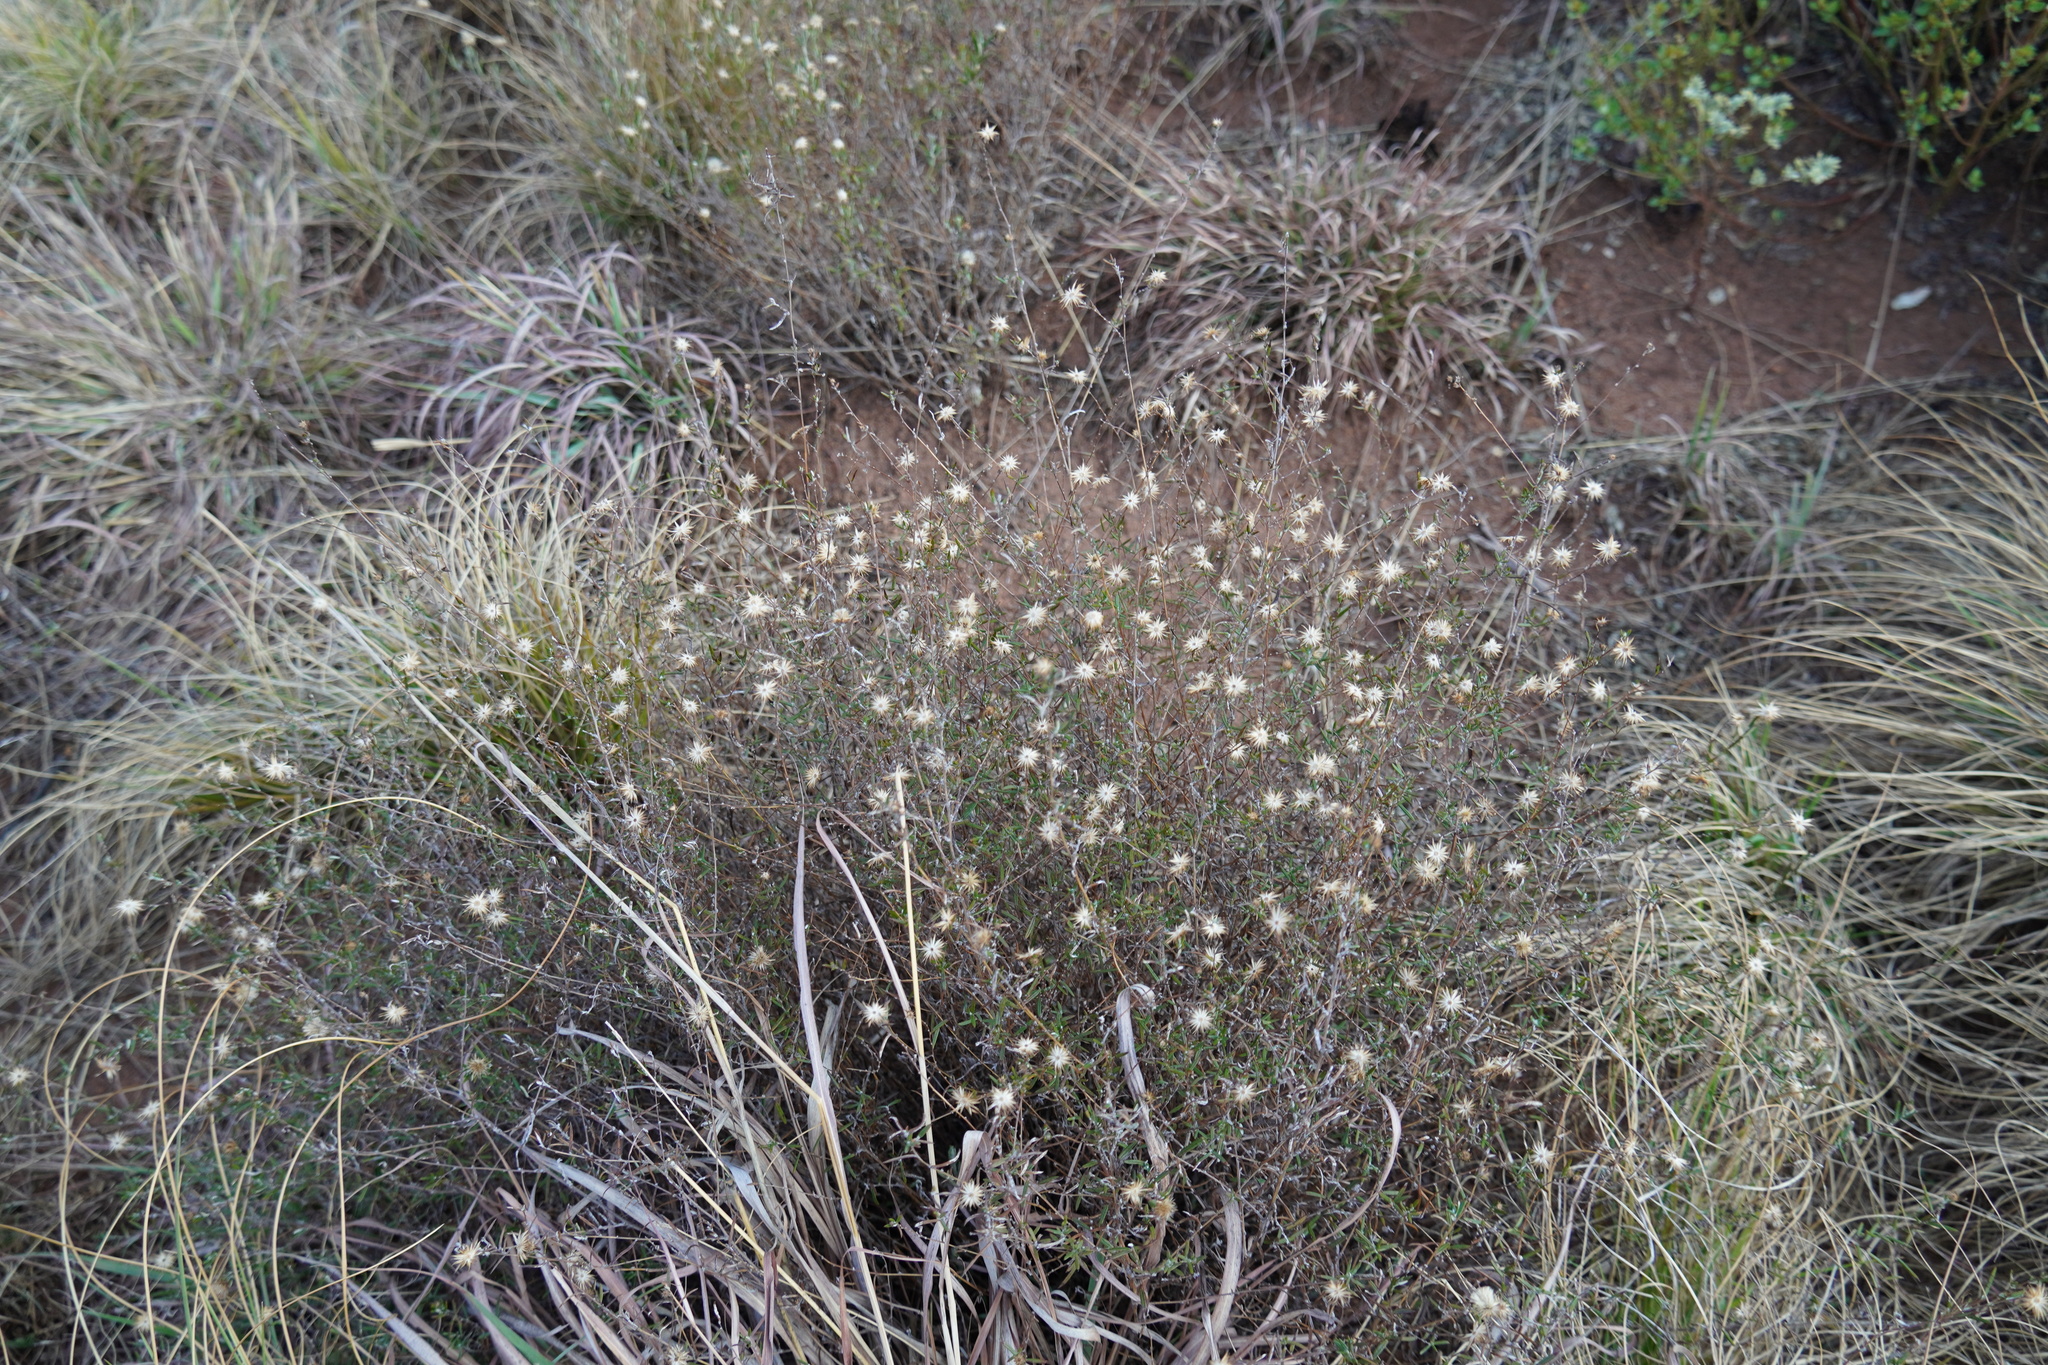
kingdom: Plantae
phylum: Tracheophyta
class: Magnoliopsida
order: Asterales
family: Asteraceae
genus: Athrixia
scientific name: Athrixia elata
